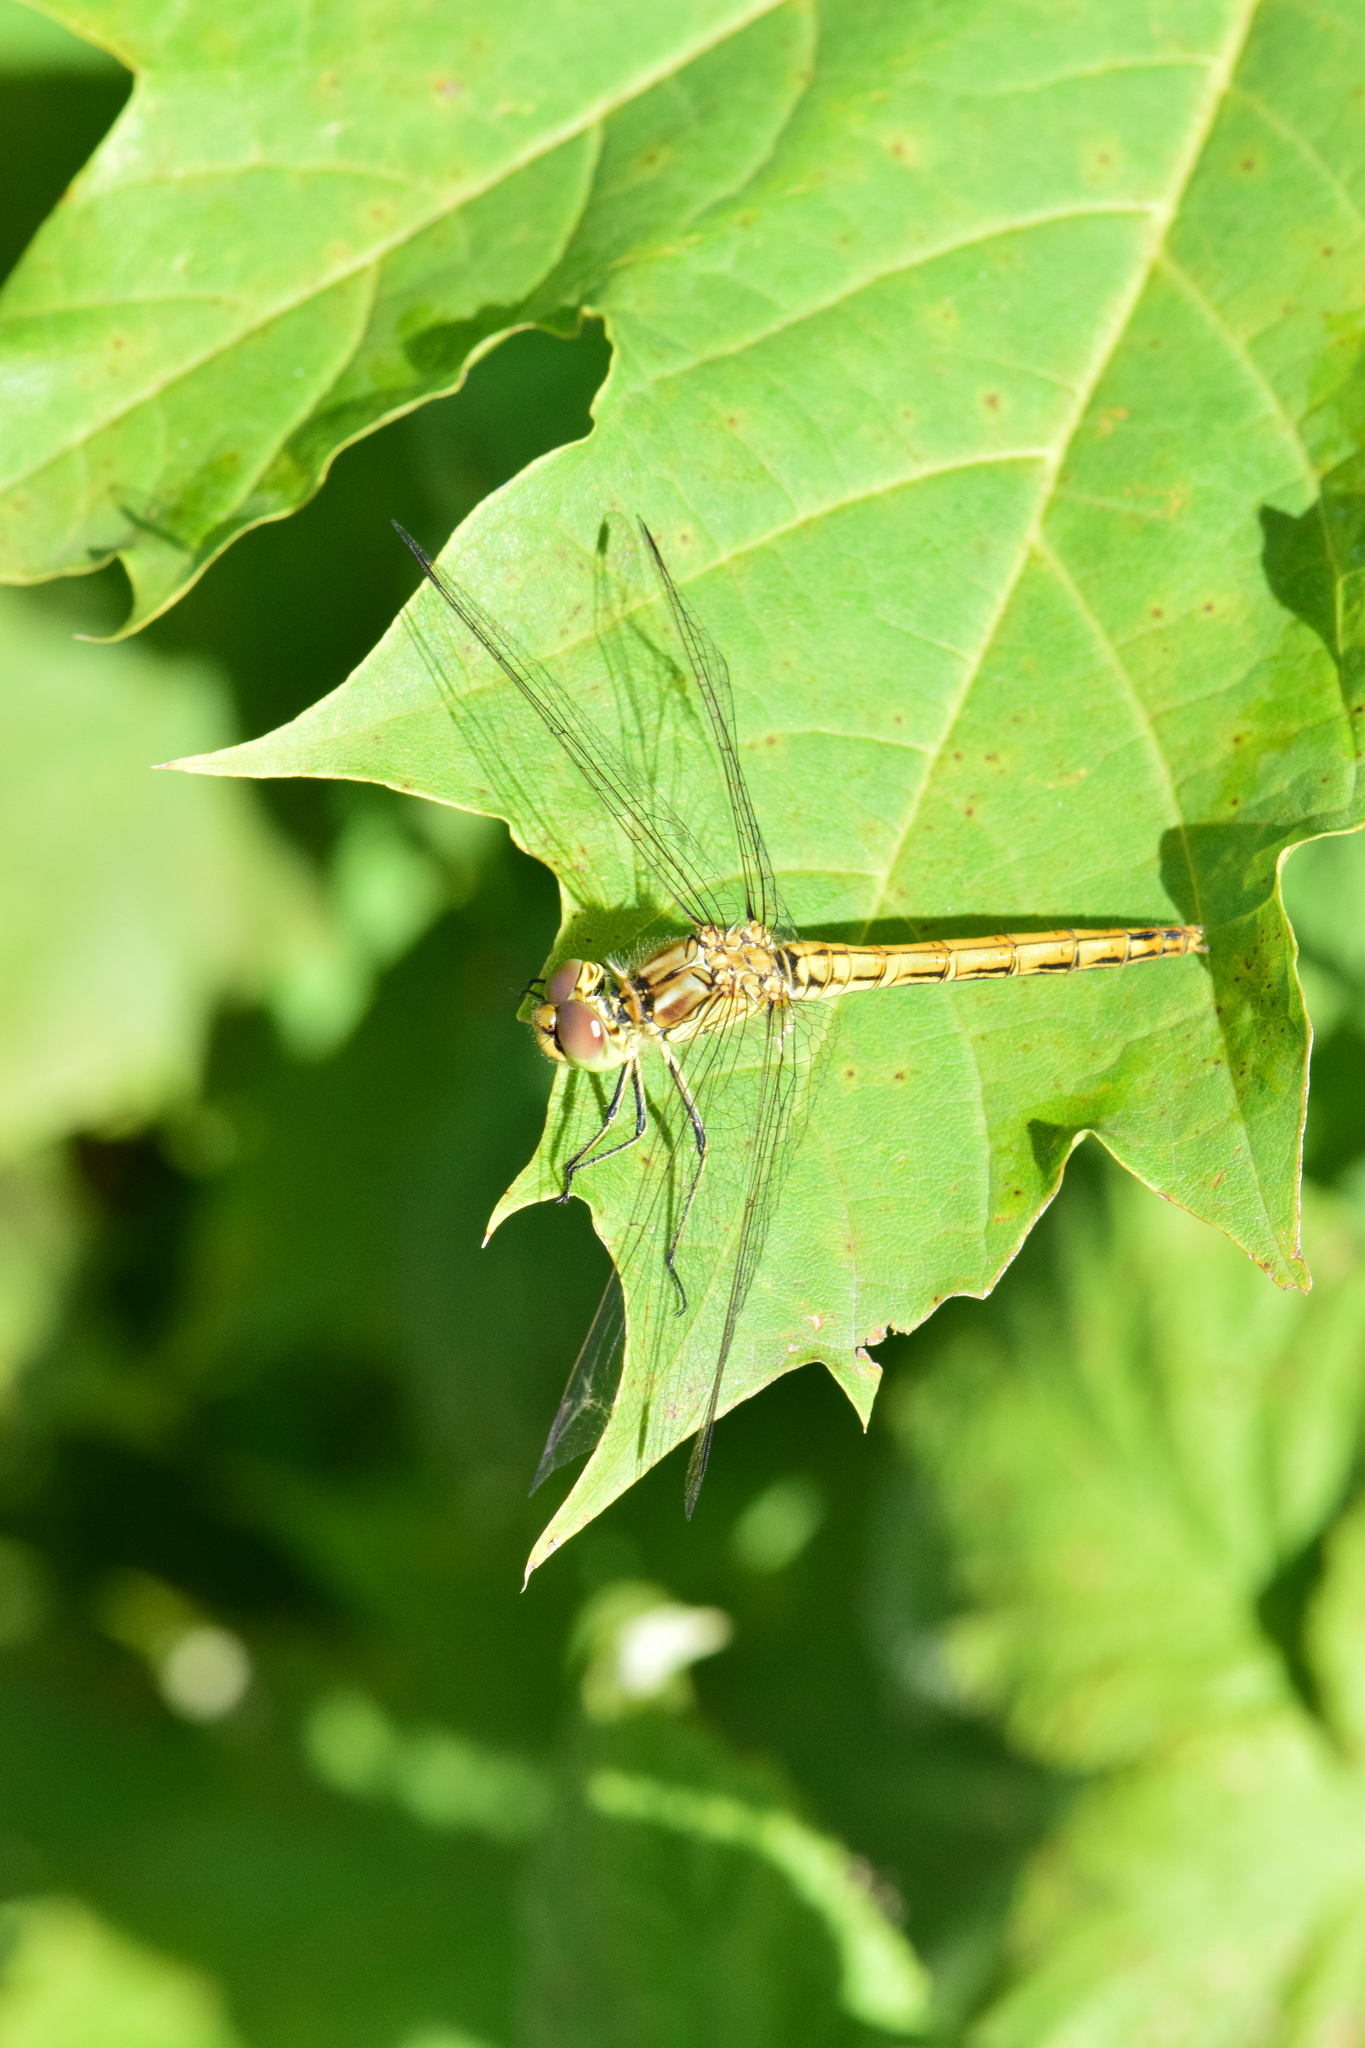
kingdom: Animalia
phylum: Arthropoda
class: Insecta
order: Odonata
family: Libellulidae
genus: Sympetrum
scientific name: Sympetrum vulgatum
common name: Vagrant darter
